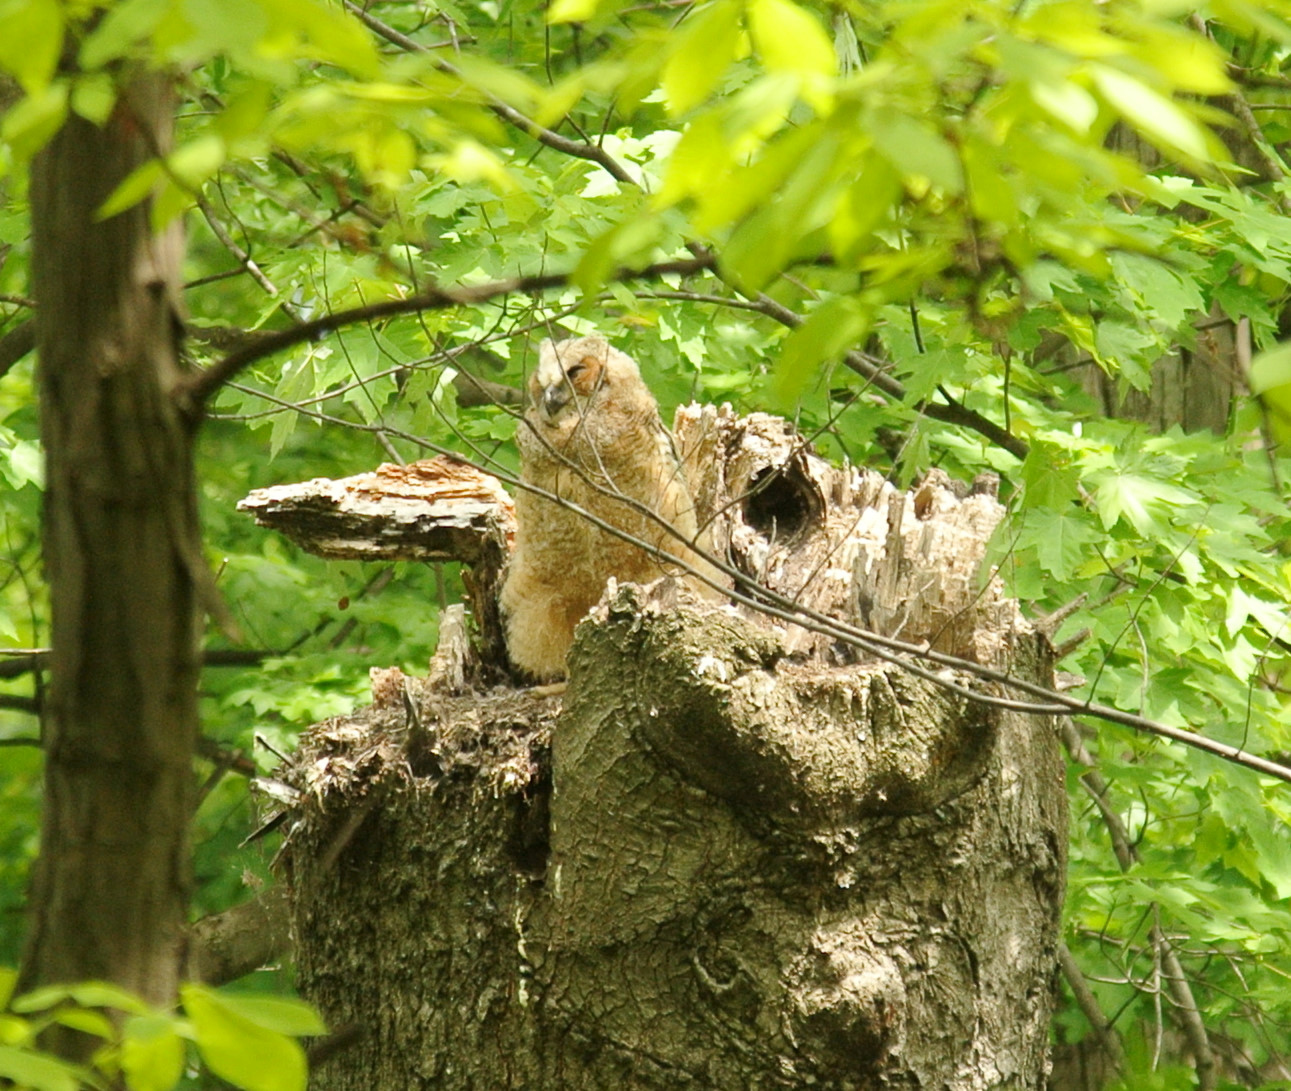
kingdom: Animalia
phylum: Chordata
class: Aves
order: Strigiformes
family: Strigidae
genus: Bubo
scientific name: Bubo virginianus
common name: Great horned owl
